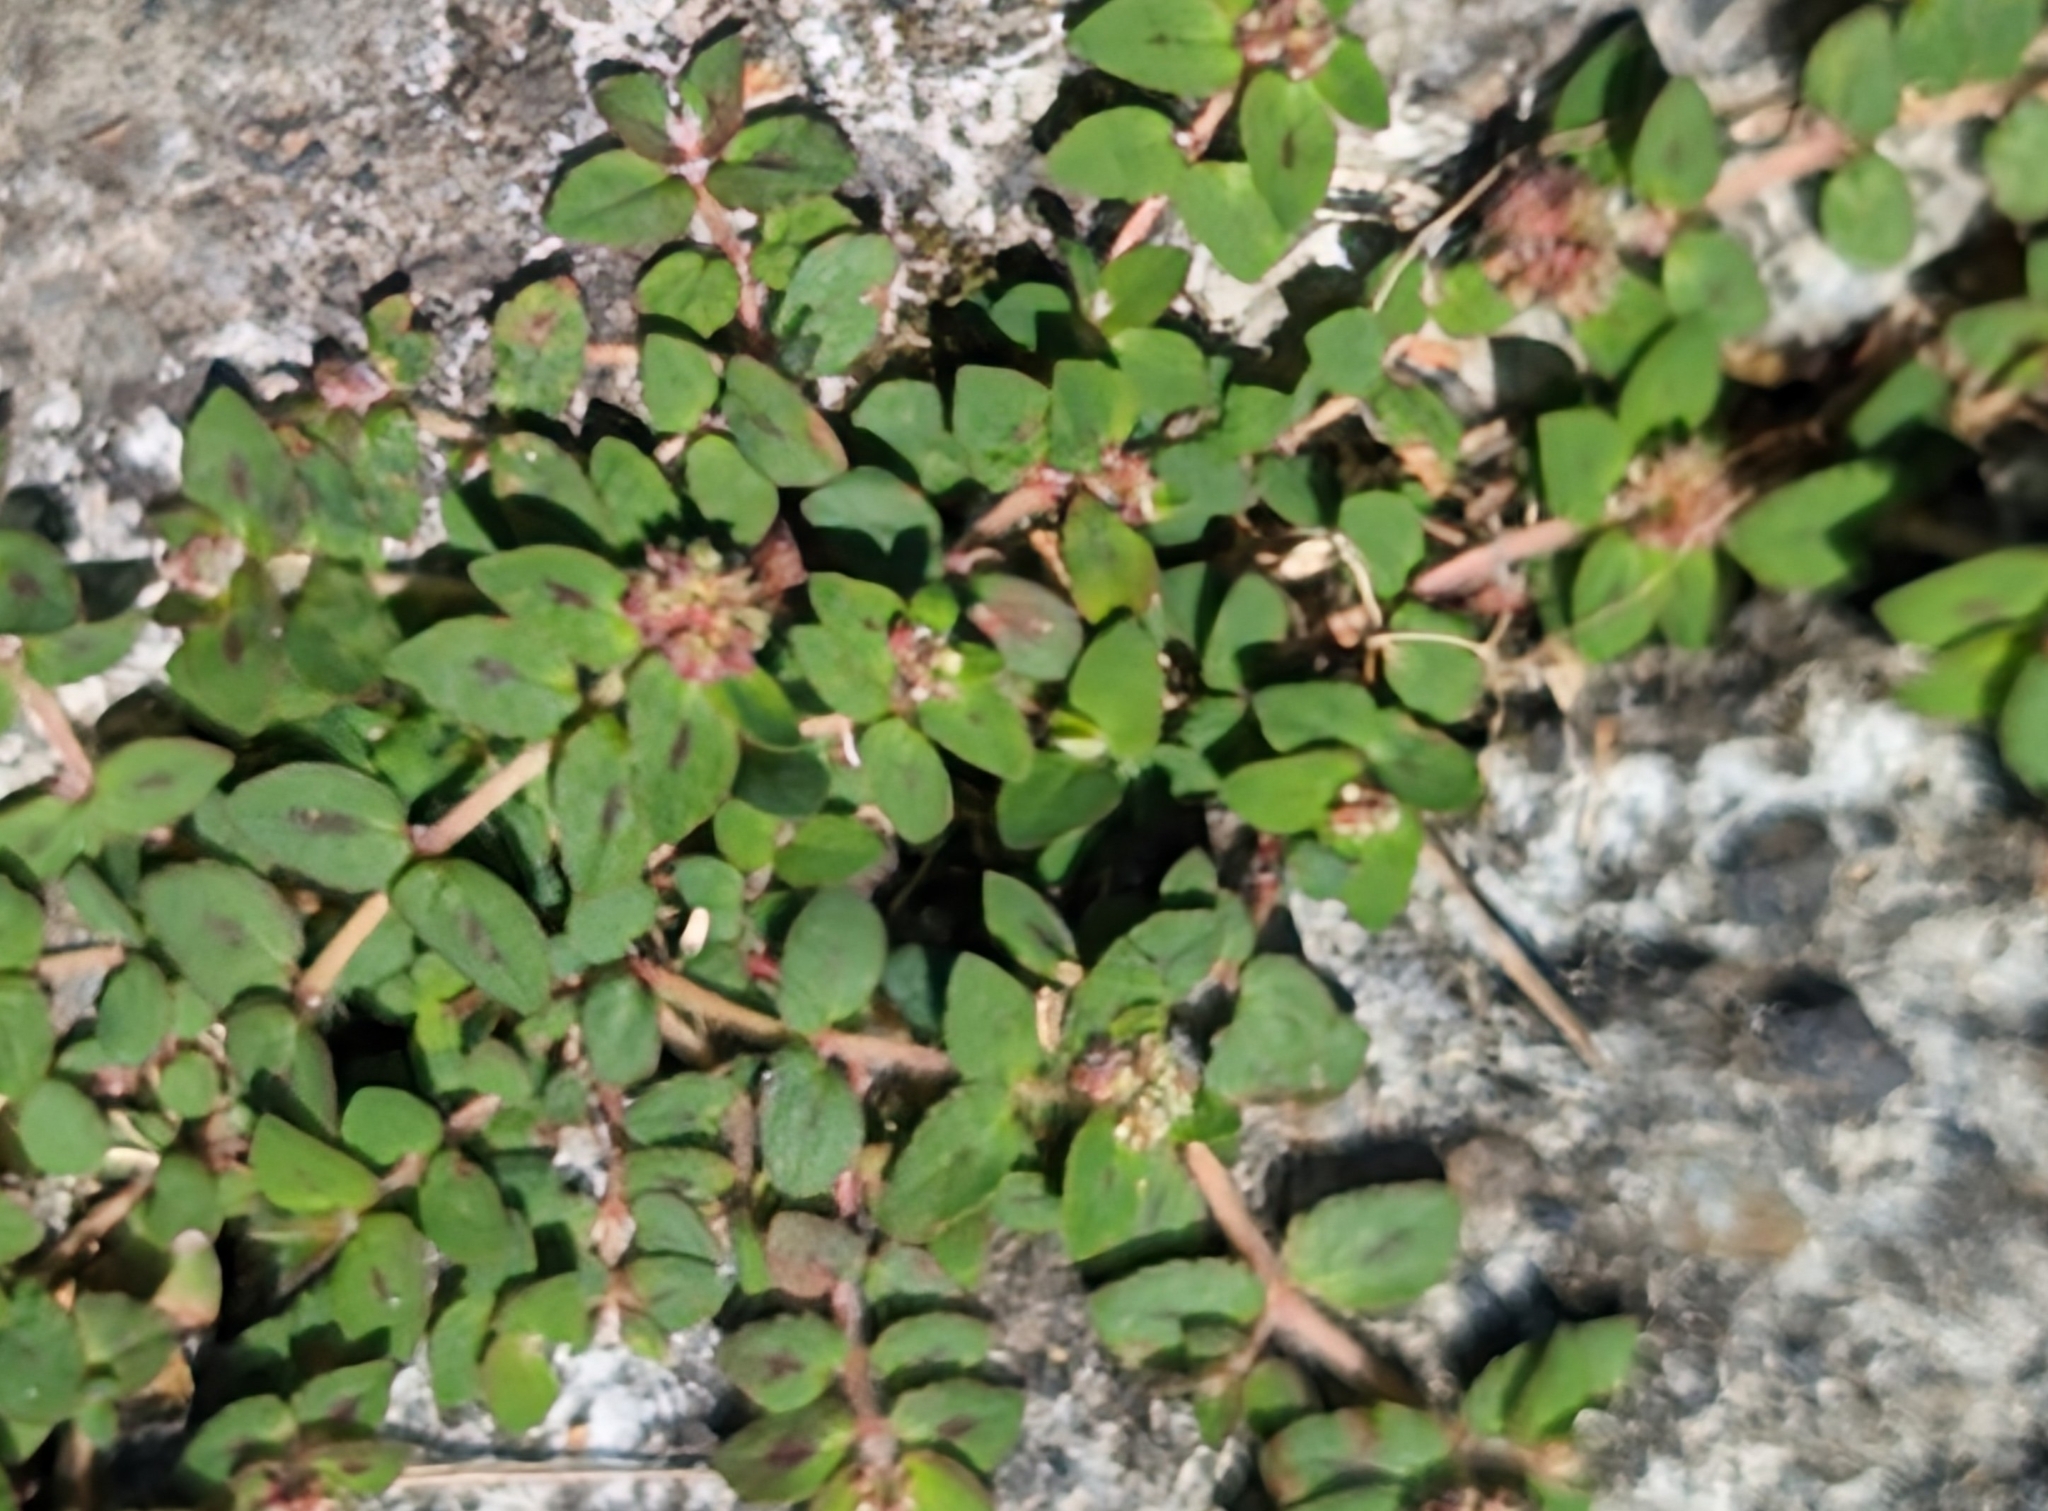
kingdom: Plantae
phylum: Tracheophyta
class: Magnoliopsida
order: Malpighiales
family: Euphorbiaceae
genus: Euphorbia
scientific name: Euphorbia ophthalmica
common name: Florida hammock sandmat
